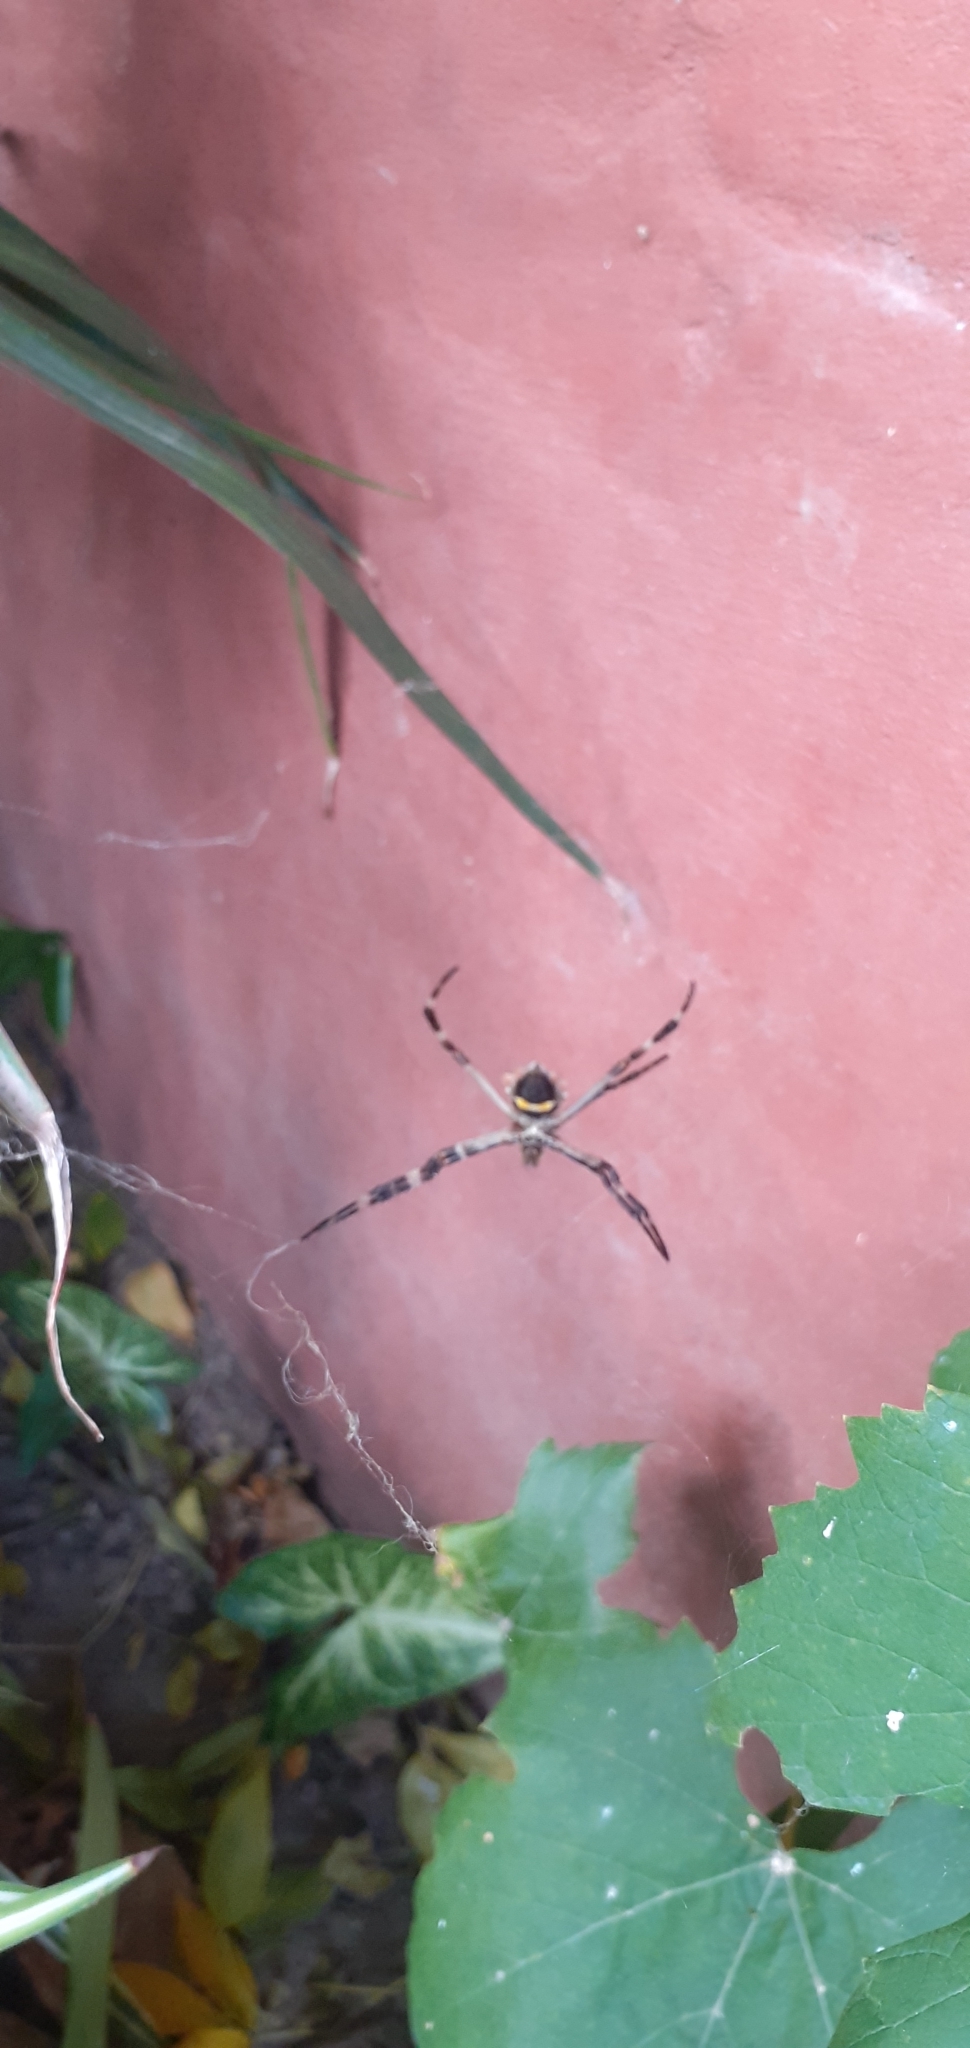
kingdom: Animalia
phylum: Arthropoda
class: Arachnida
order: Araneae
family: Araneidae
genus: Argiope
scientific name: Argiope argentata
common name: Orb weavers
